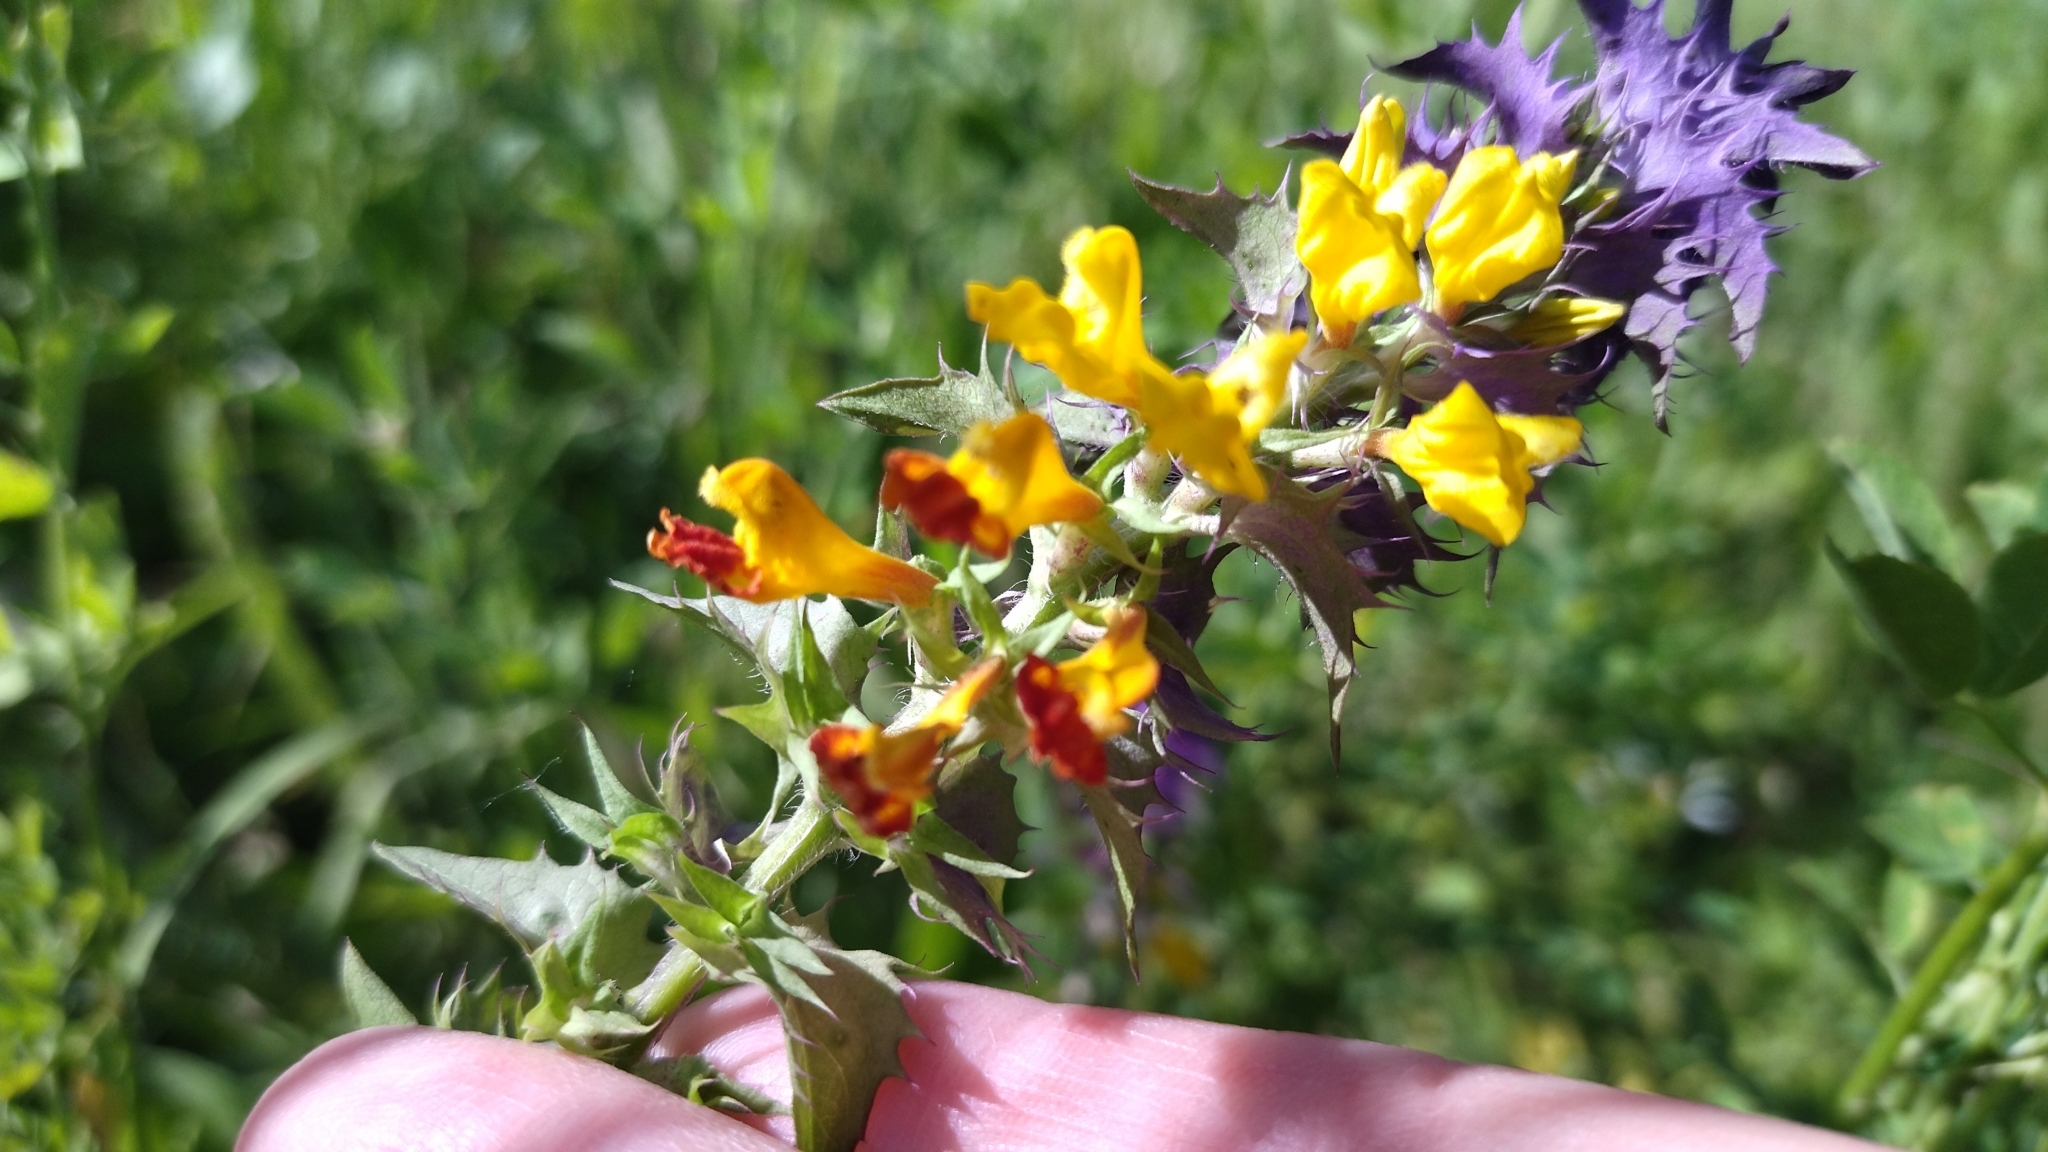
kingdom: Plantae
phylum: Tracheophyta
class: Magnoliopsida
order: Lamiales
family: Orobanchaceae
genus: Melampyrum
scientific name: Melampyrum nemorosum
